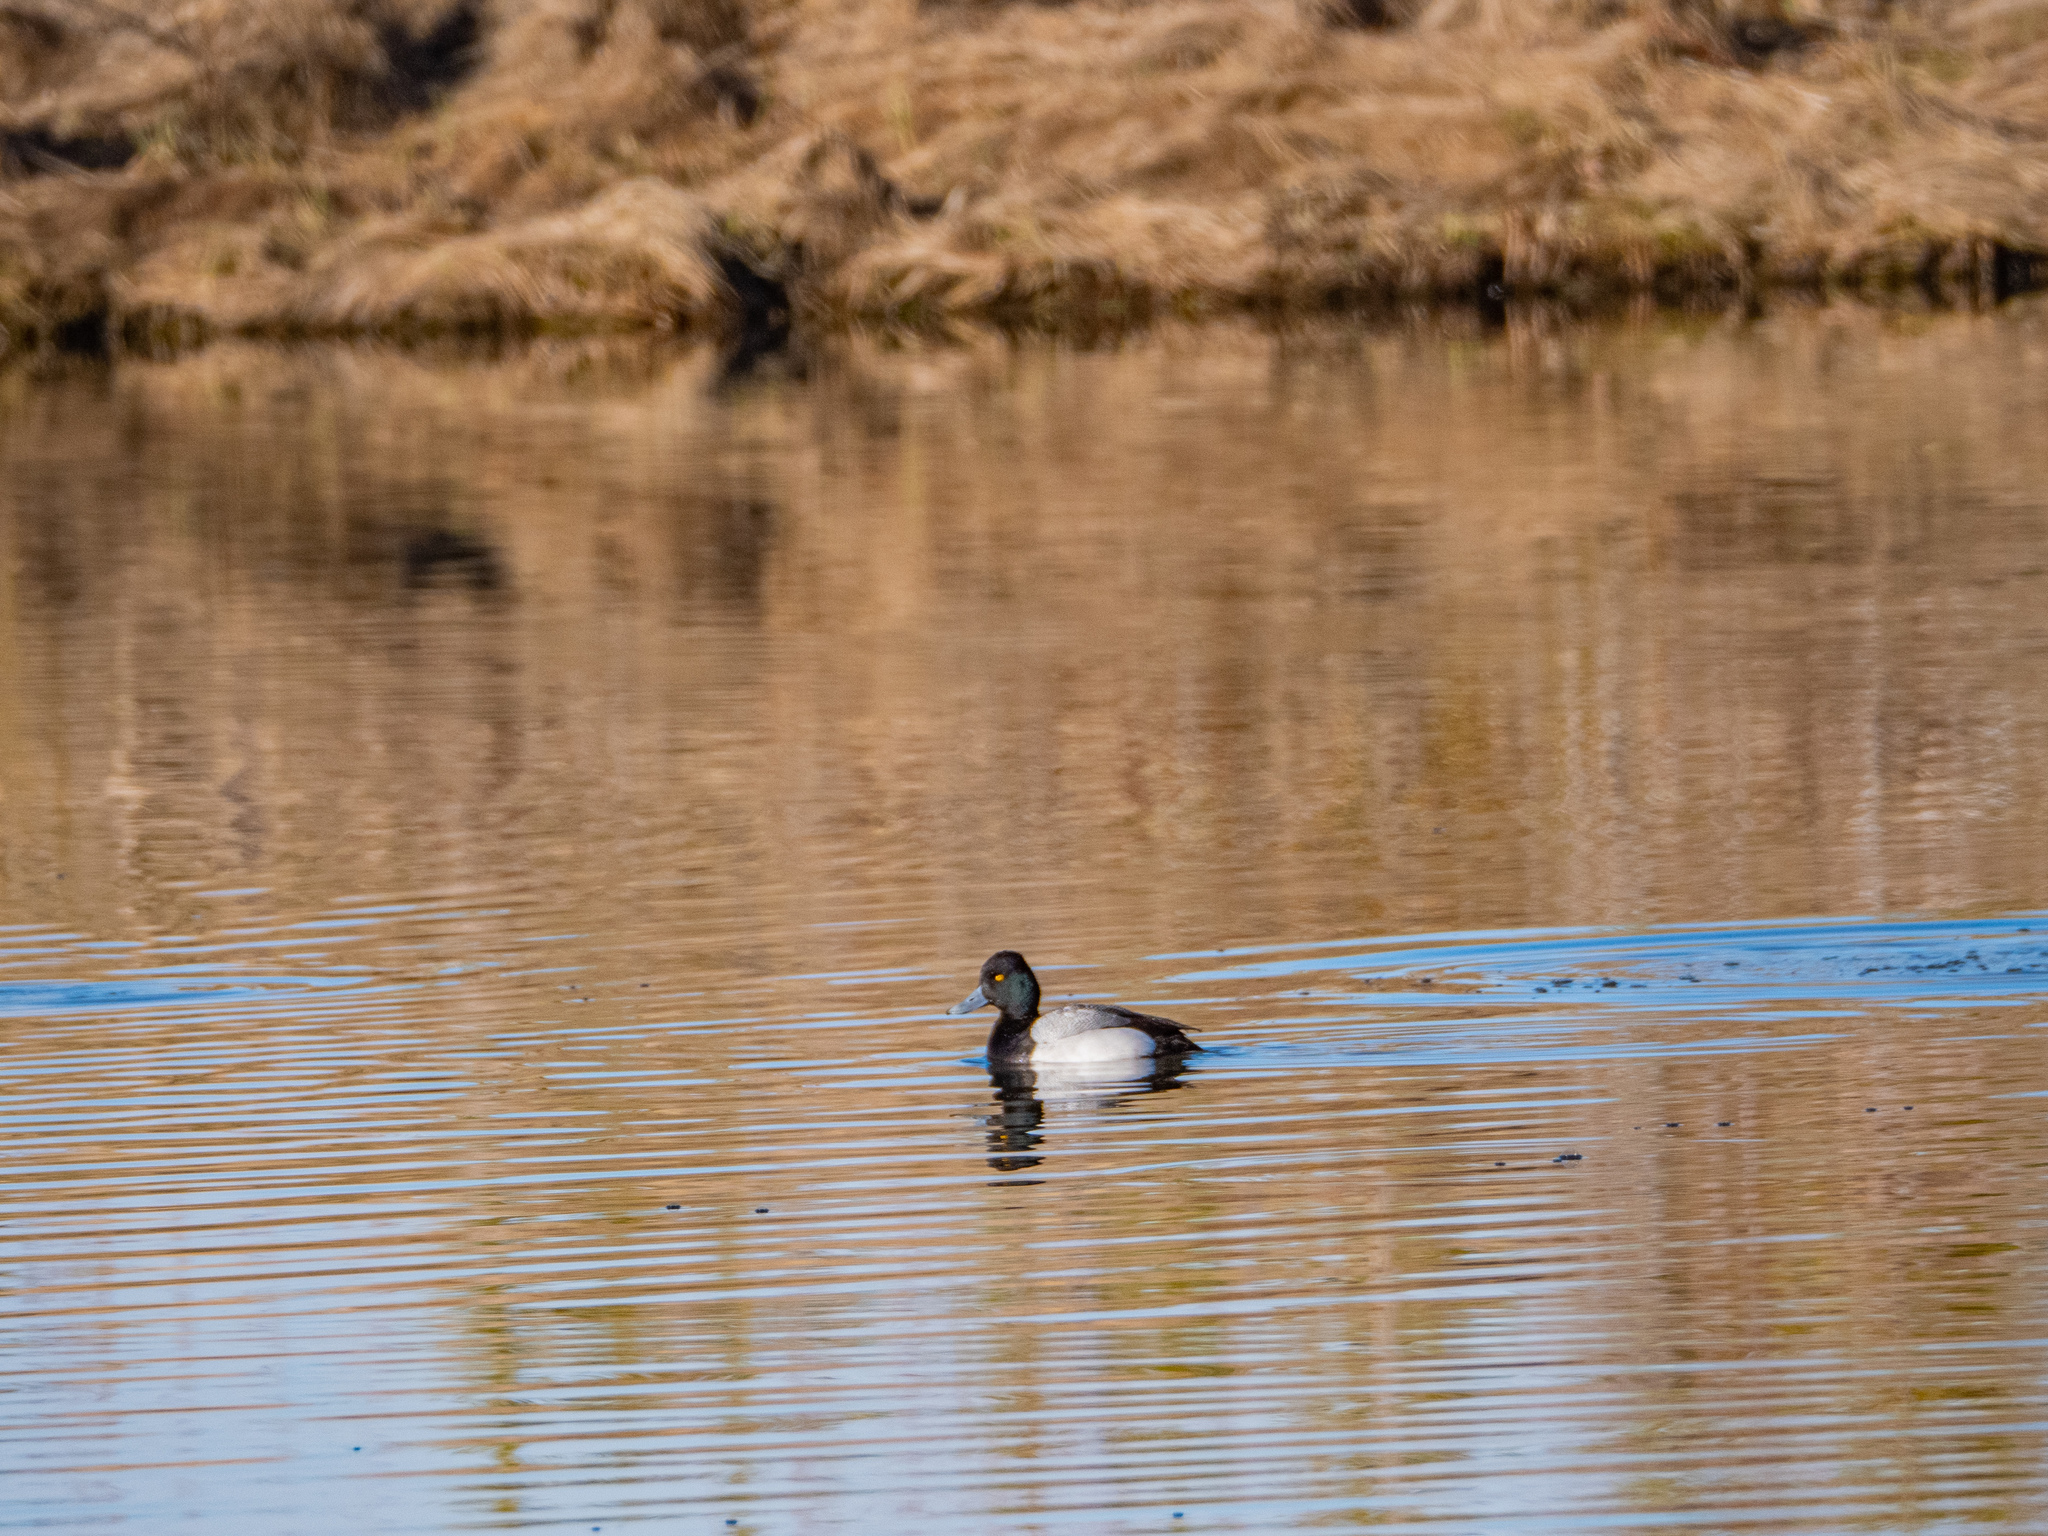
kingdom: Animalia
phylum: Chordata
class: Aves
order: Anseriformes
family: Anatidae
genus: Aythya
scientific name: Aythya affinis
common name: Lesser scaup
